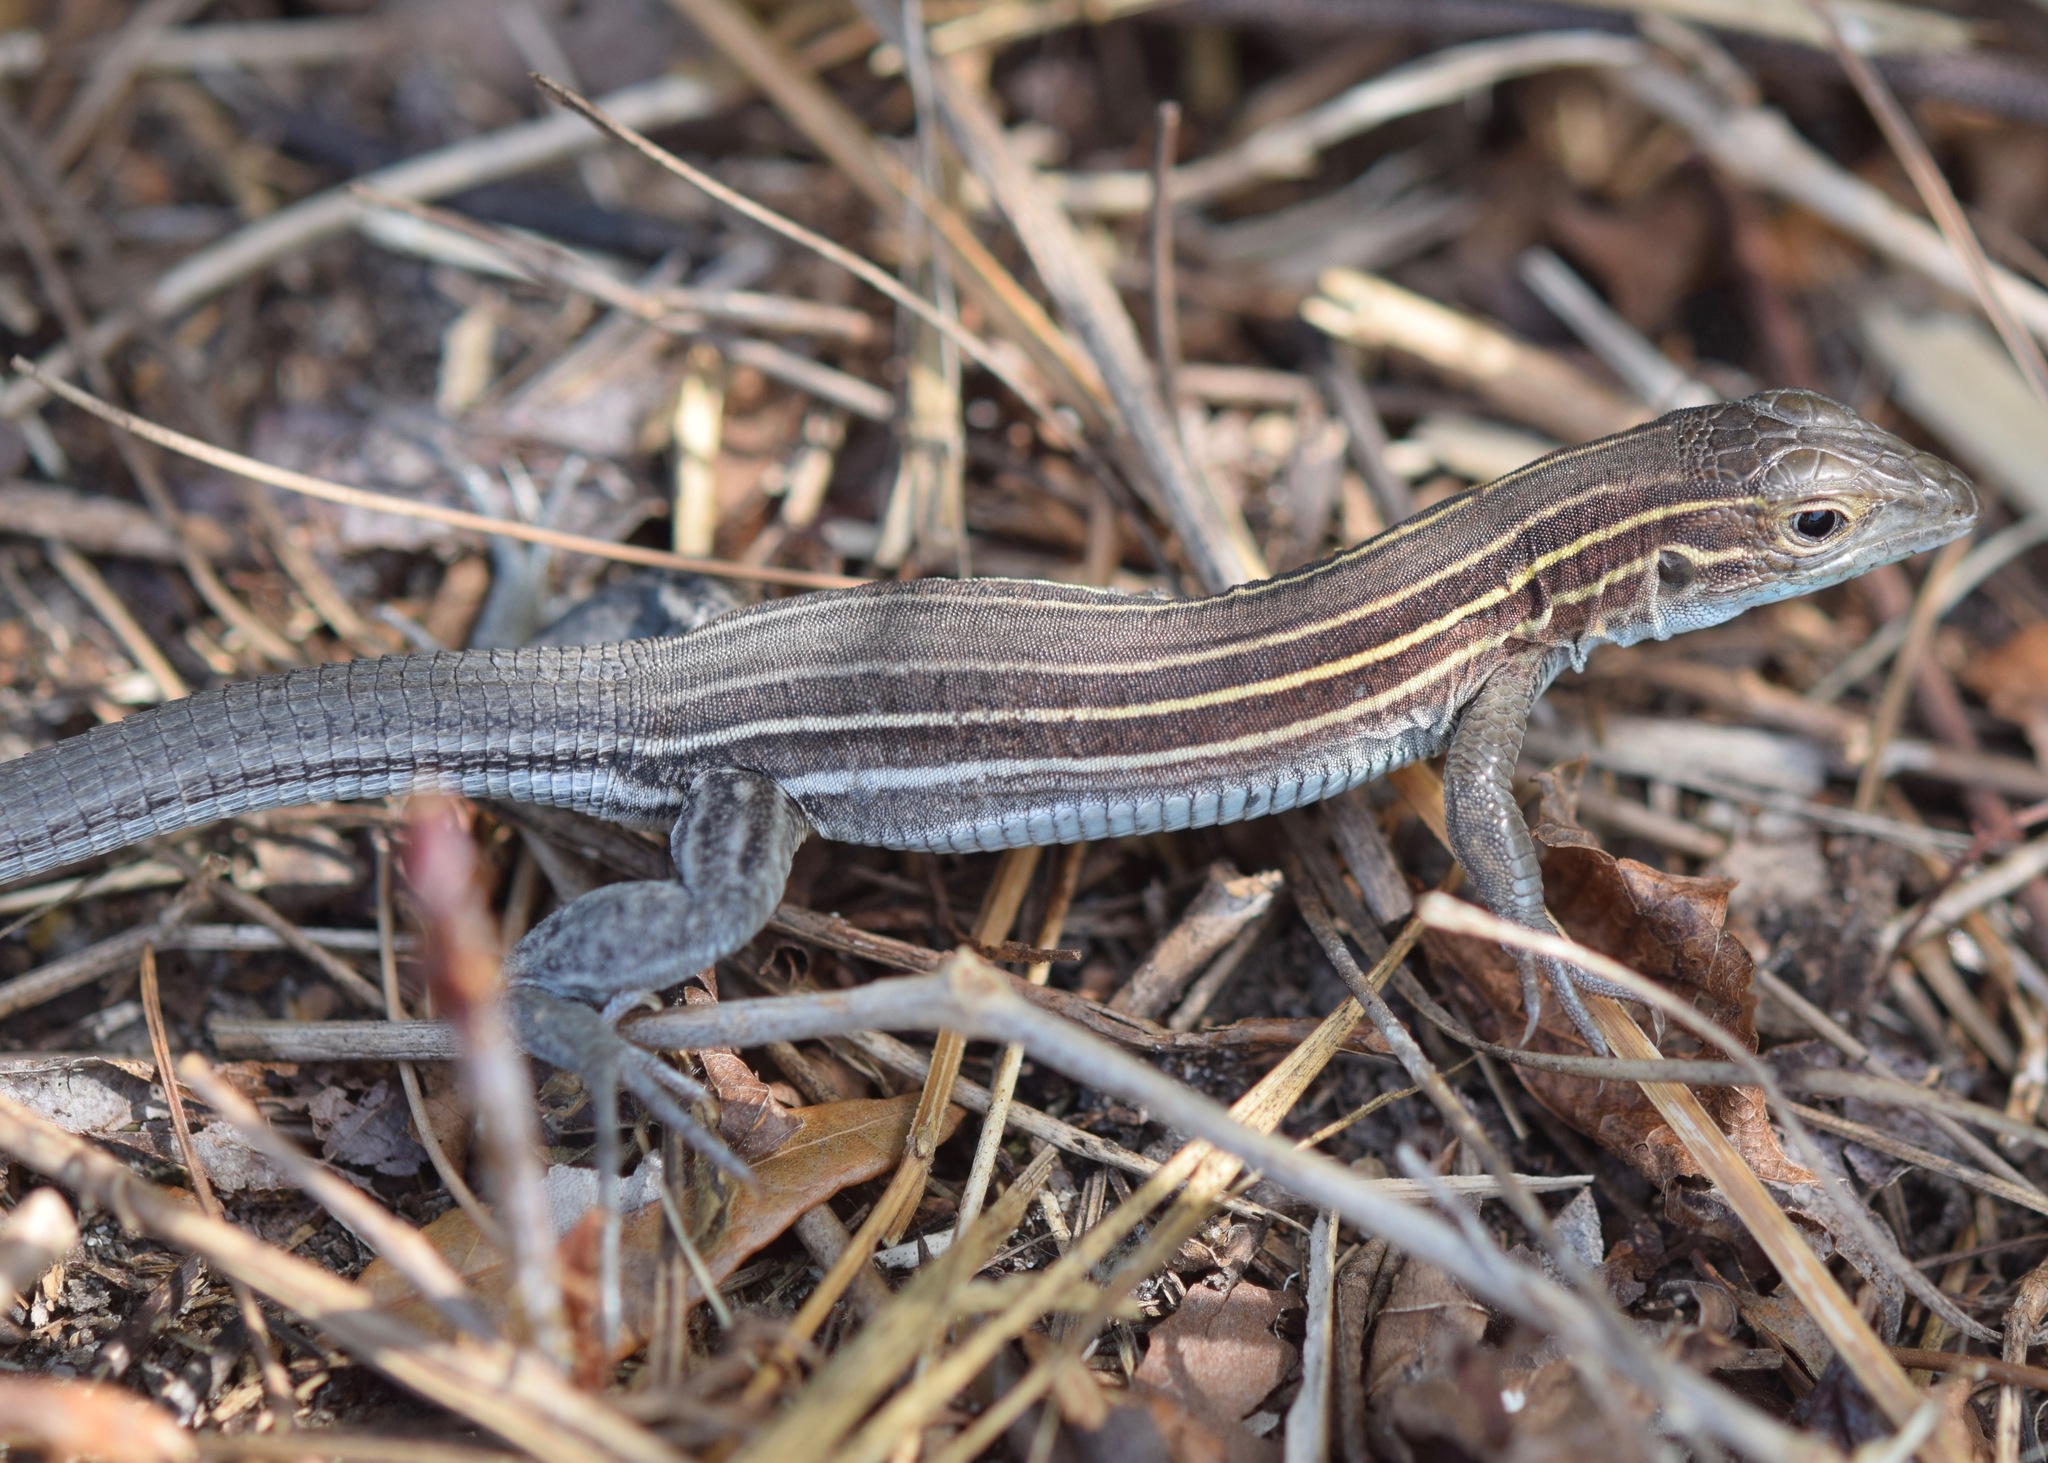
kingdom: Animalia
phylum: Chordata
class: Squamata
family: Teiidae
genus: Aspidoscelis
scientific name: Aspidoscelis sexlineatus
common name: Six-lined racerunner
